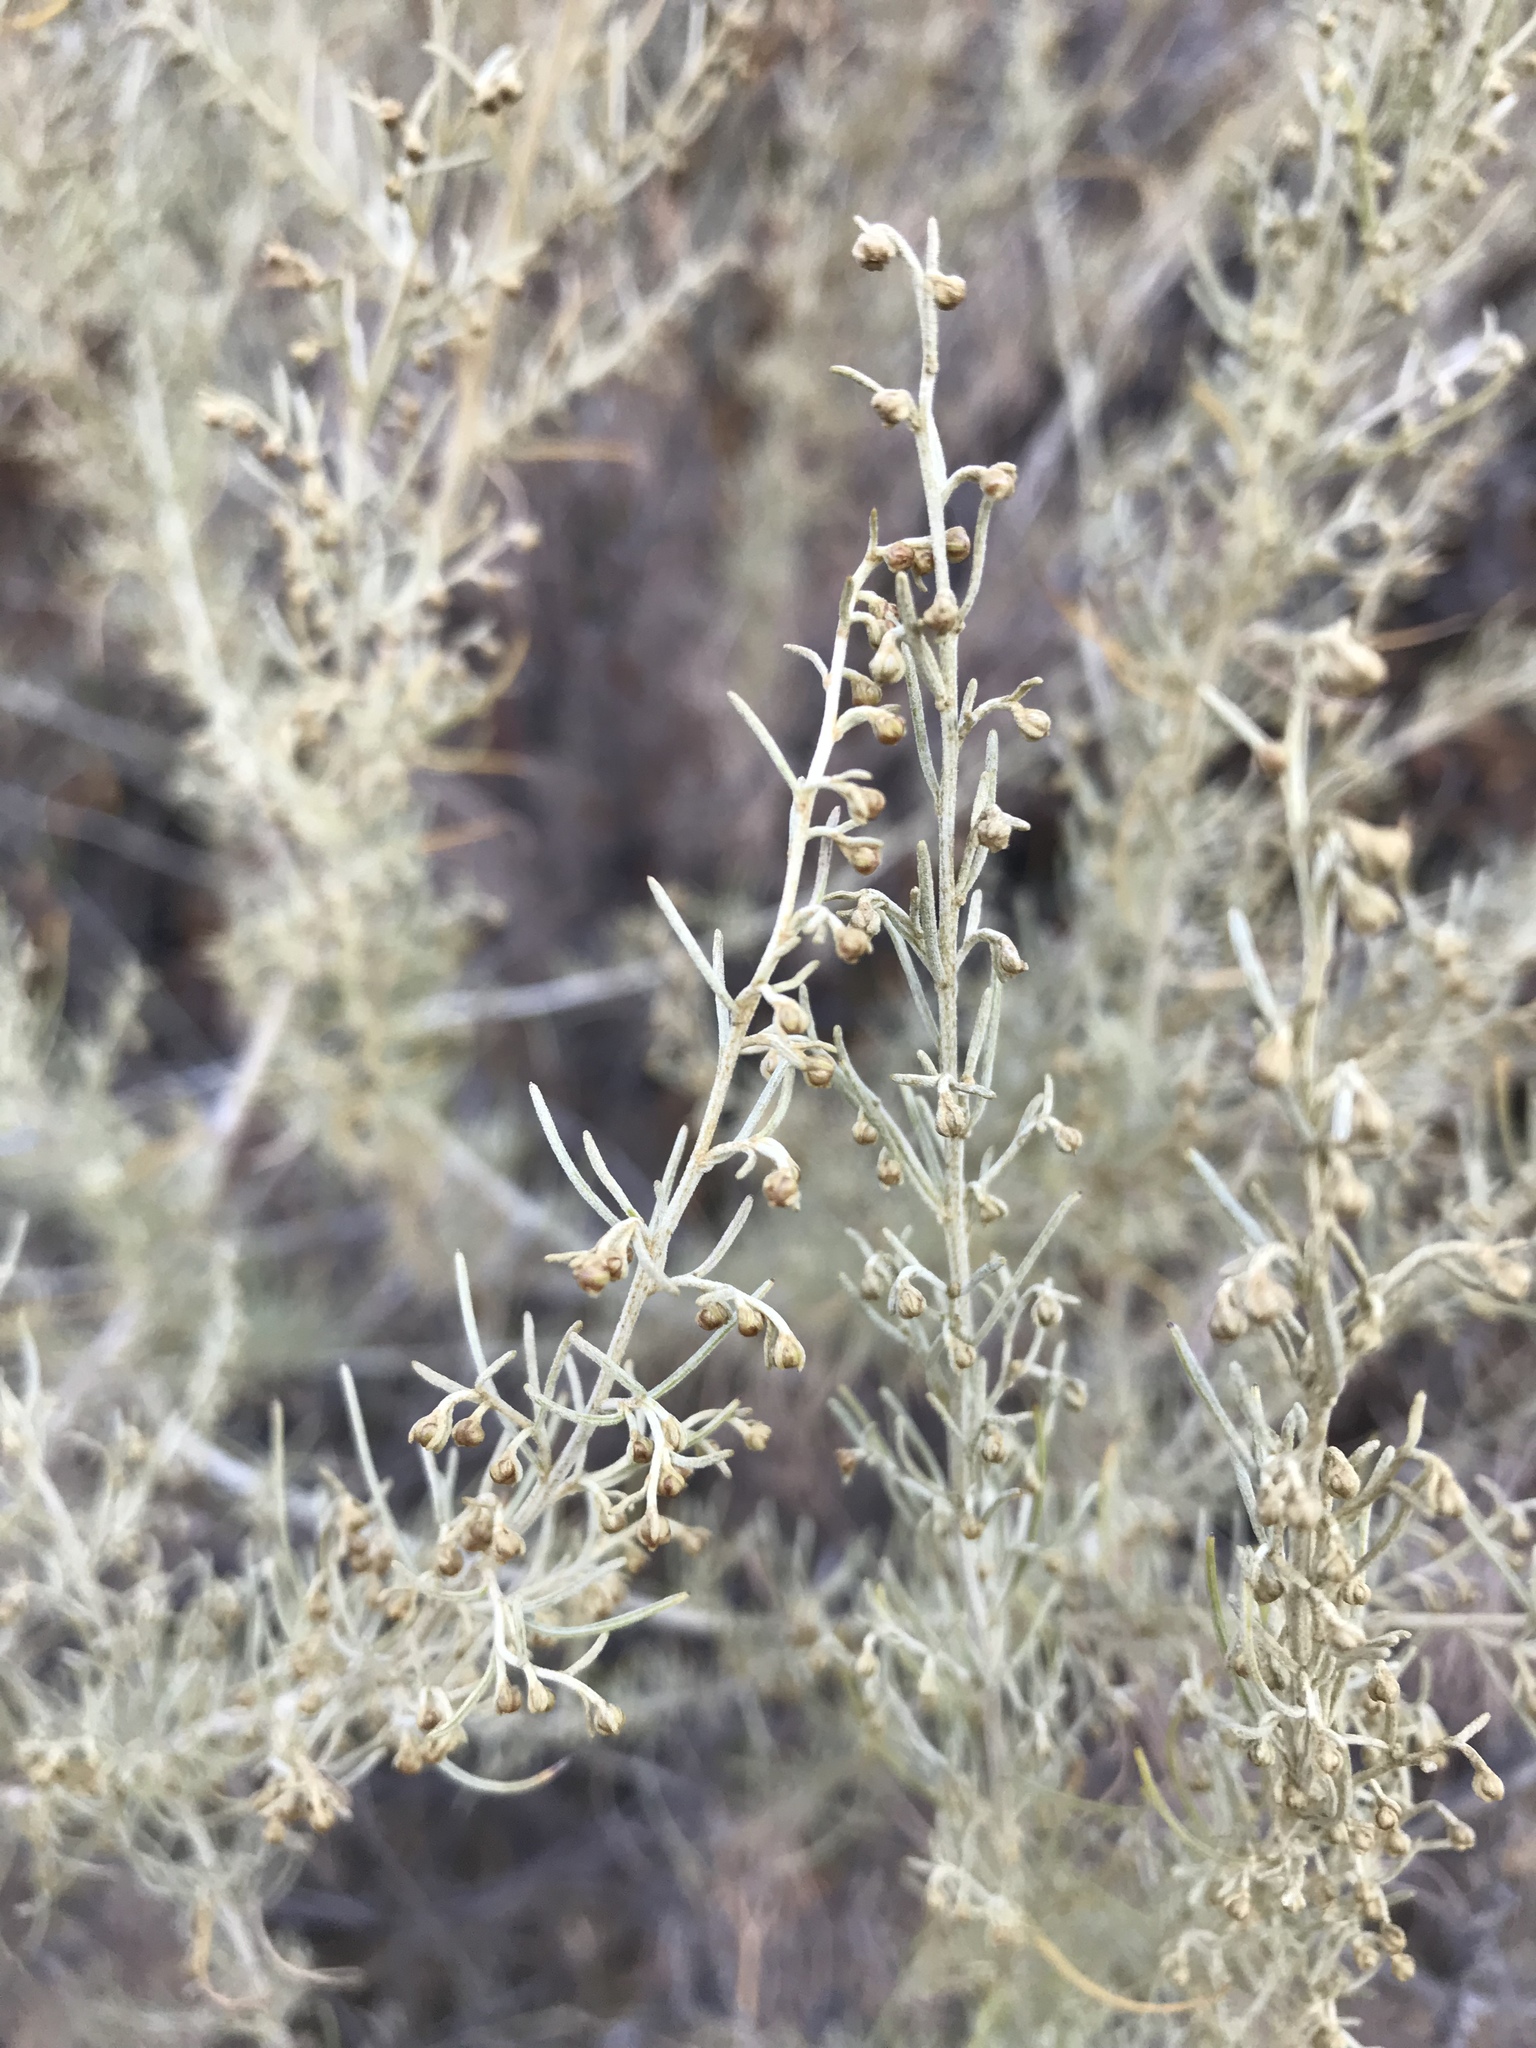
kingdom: Plantae
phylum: Tracheophyta
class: Magnoliopsida
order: Asterales
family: Asteraceae
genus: Artemisia
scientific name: Artemisia californica
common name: California sagebrush
